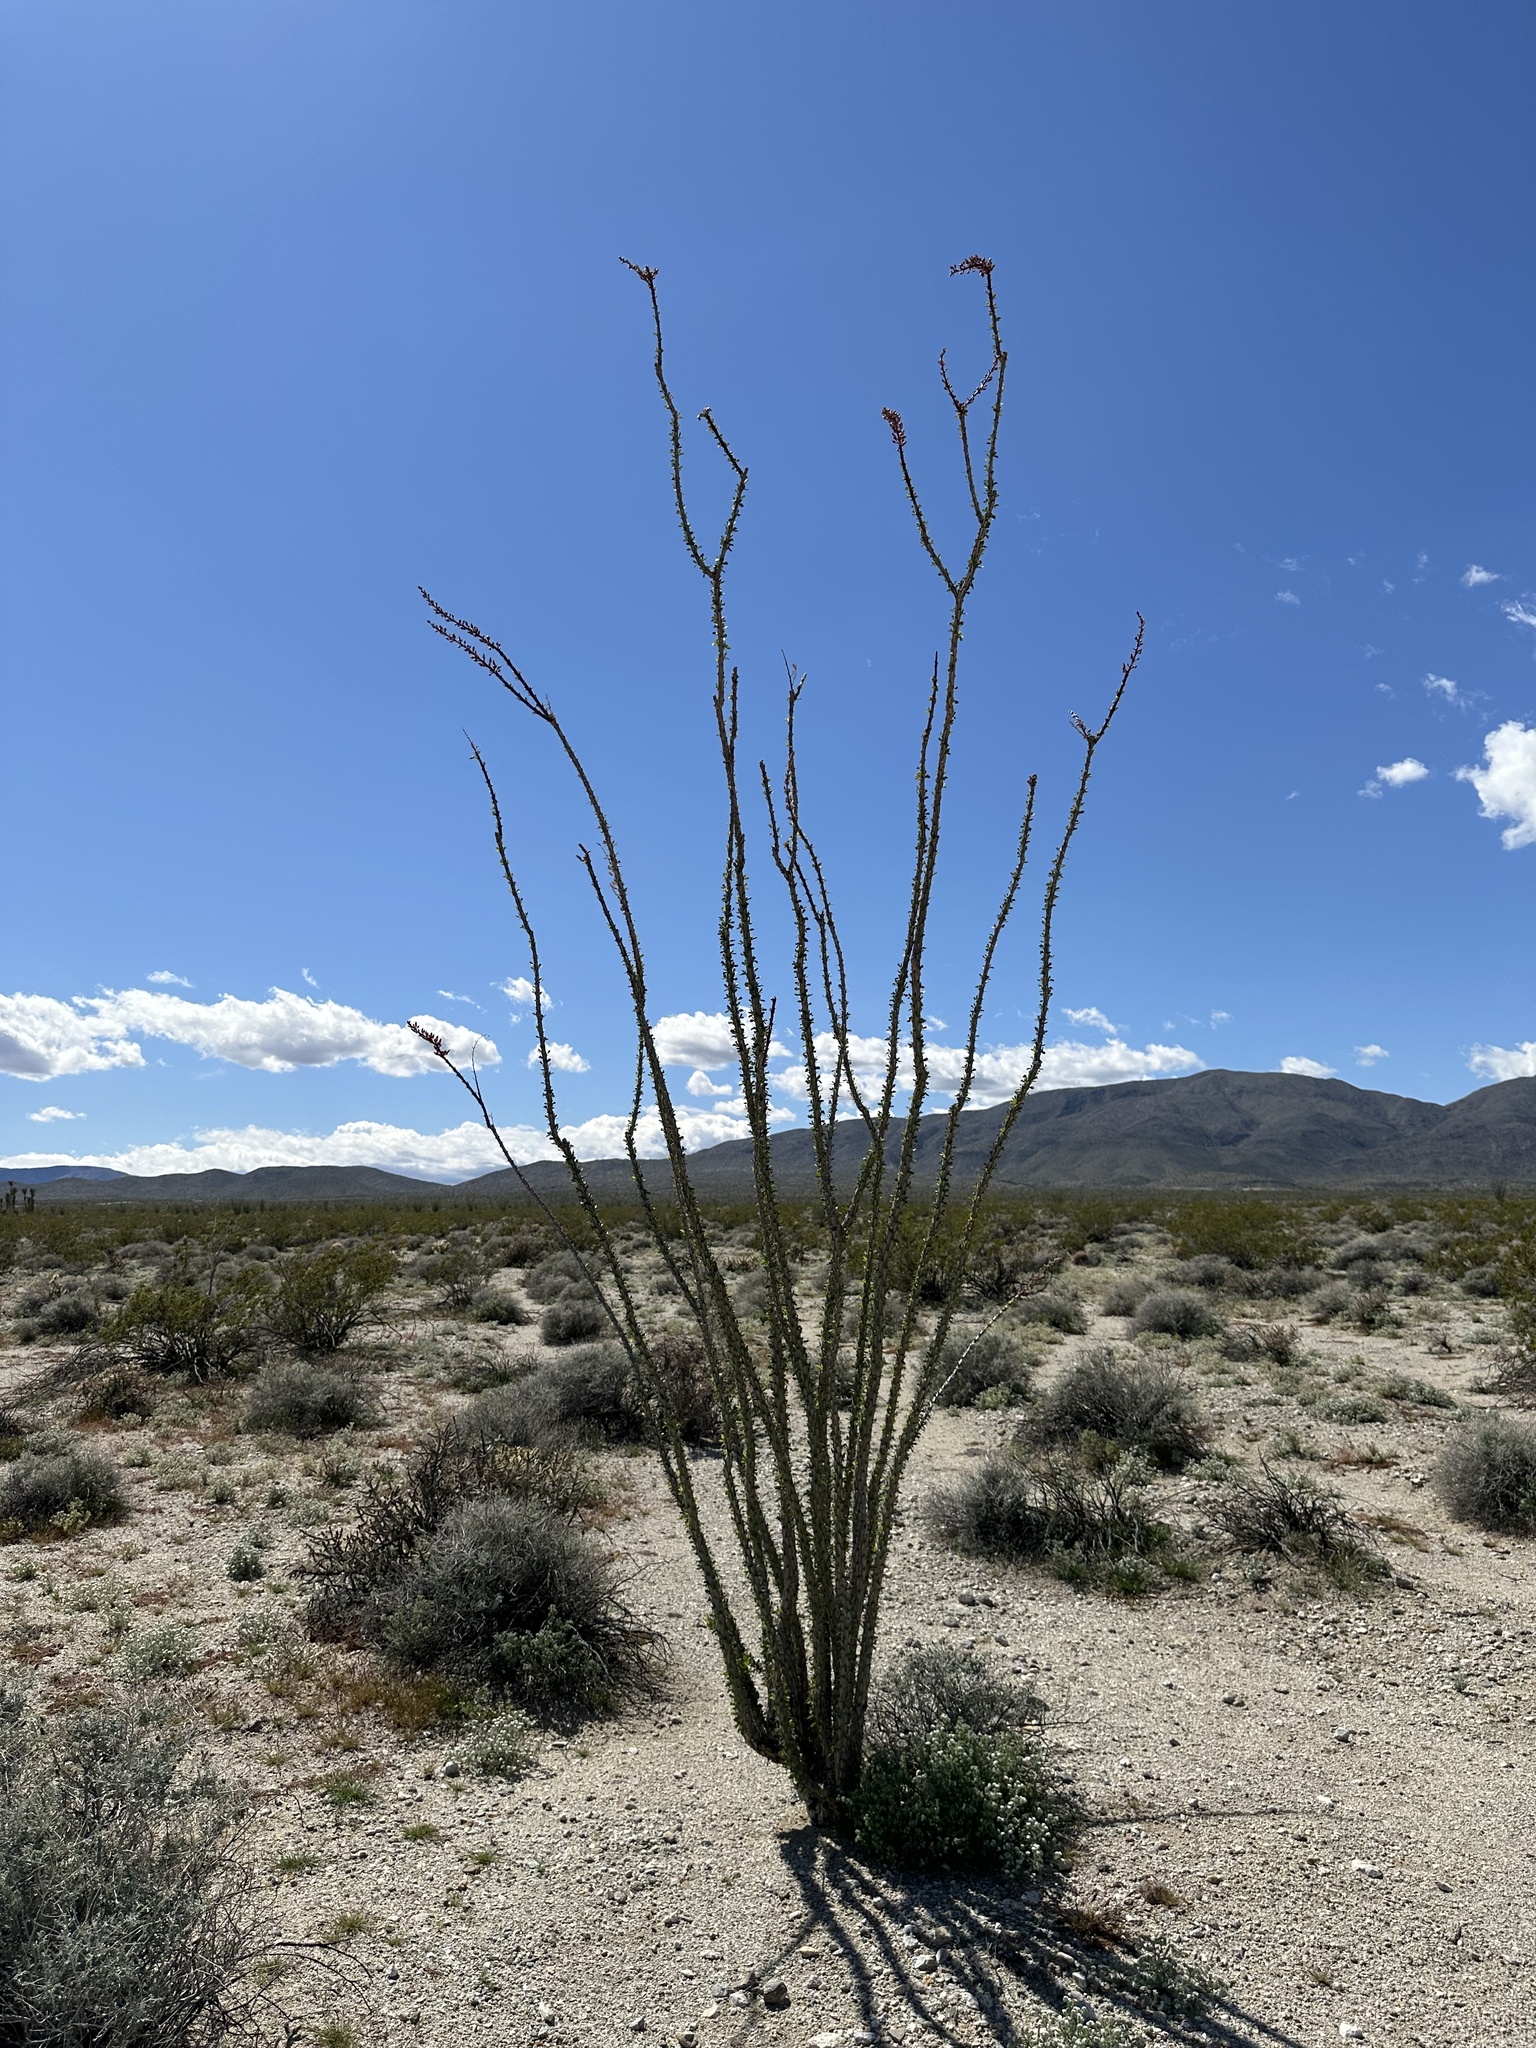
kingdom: Plantae
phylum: Tracheophyta
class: Magnoliopsida
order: Ericales
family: Fouquieriaceae
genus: Fouquieria
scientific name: Fouquieria splendens
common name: Vine-cactus
